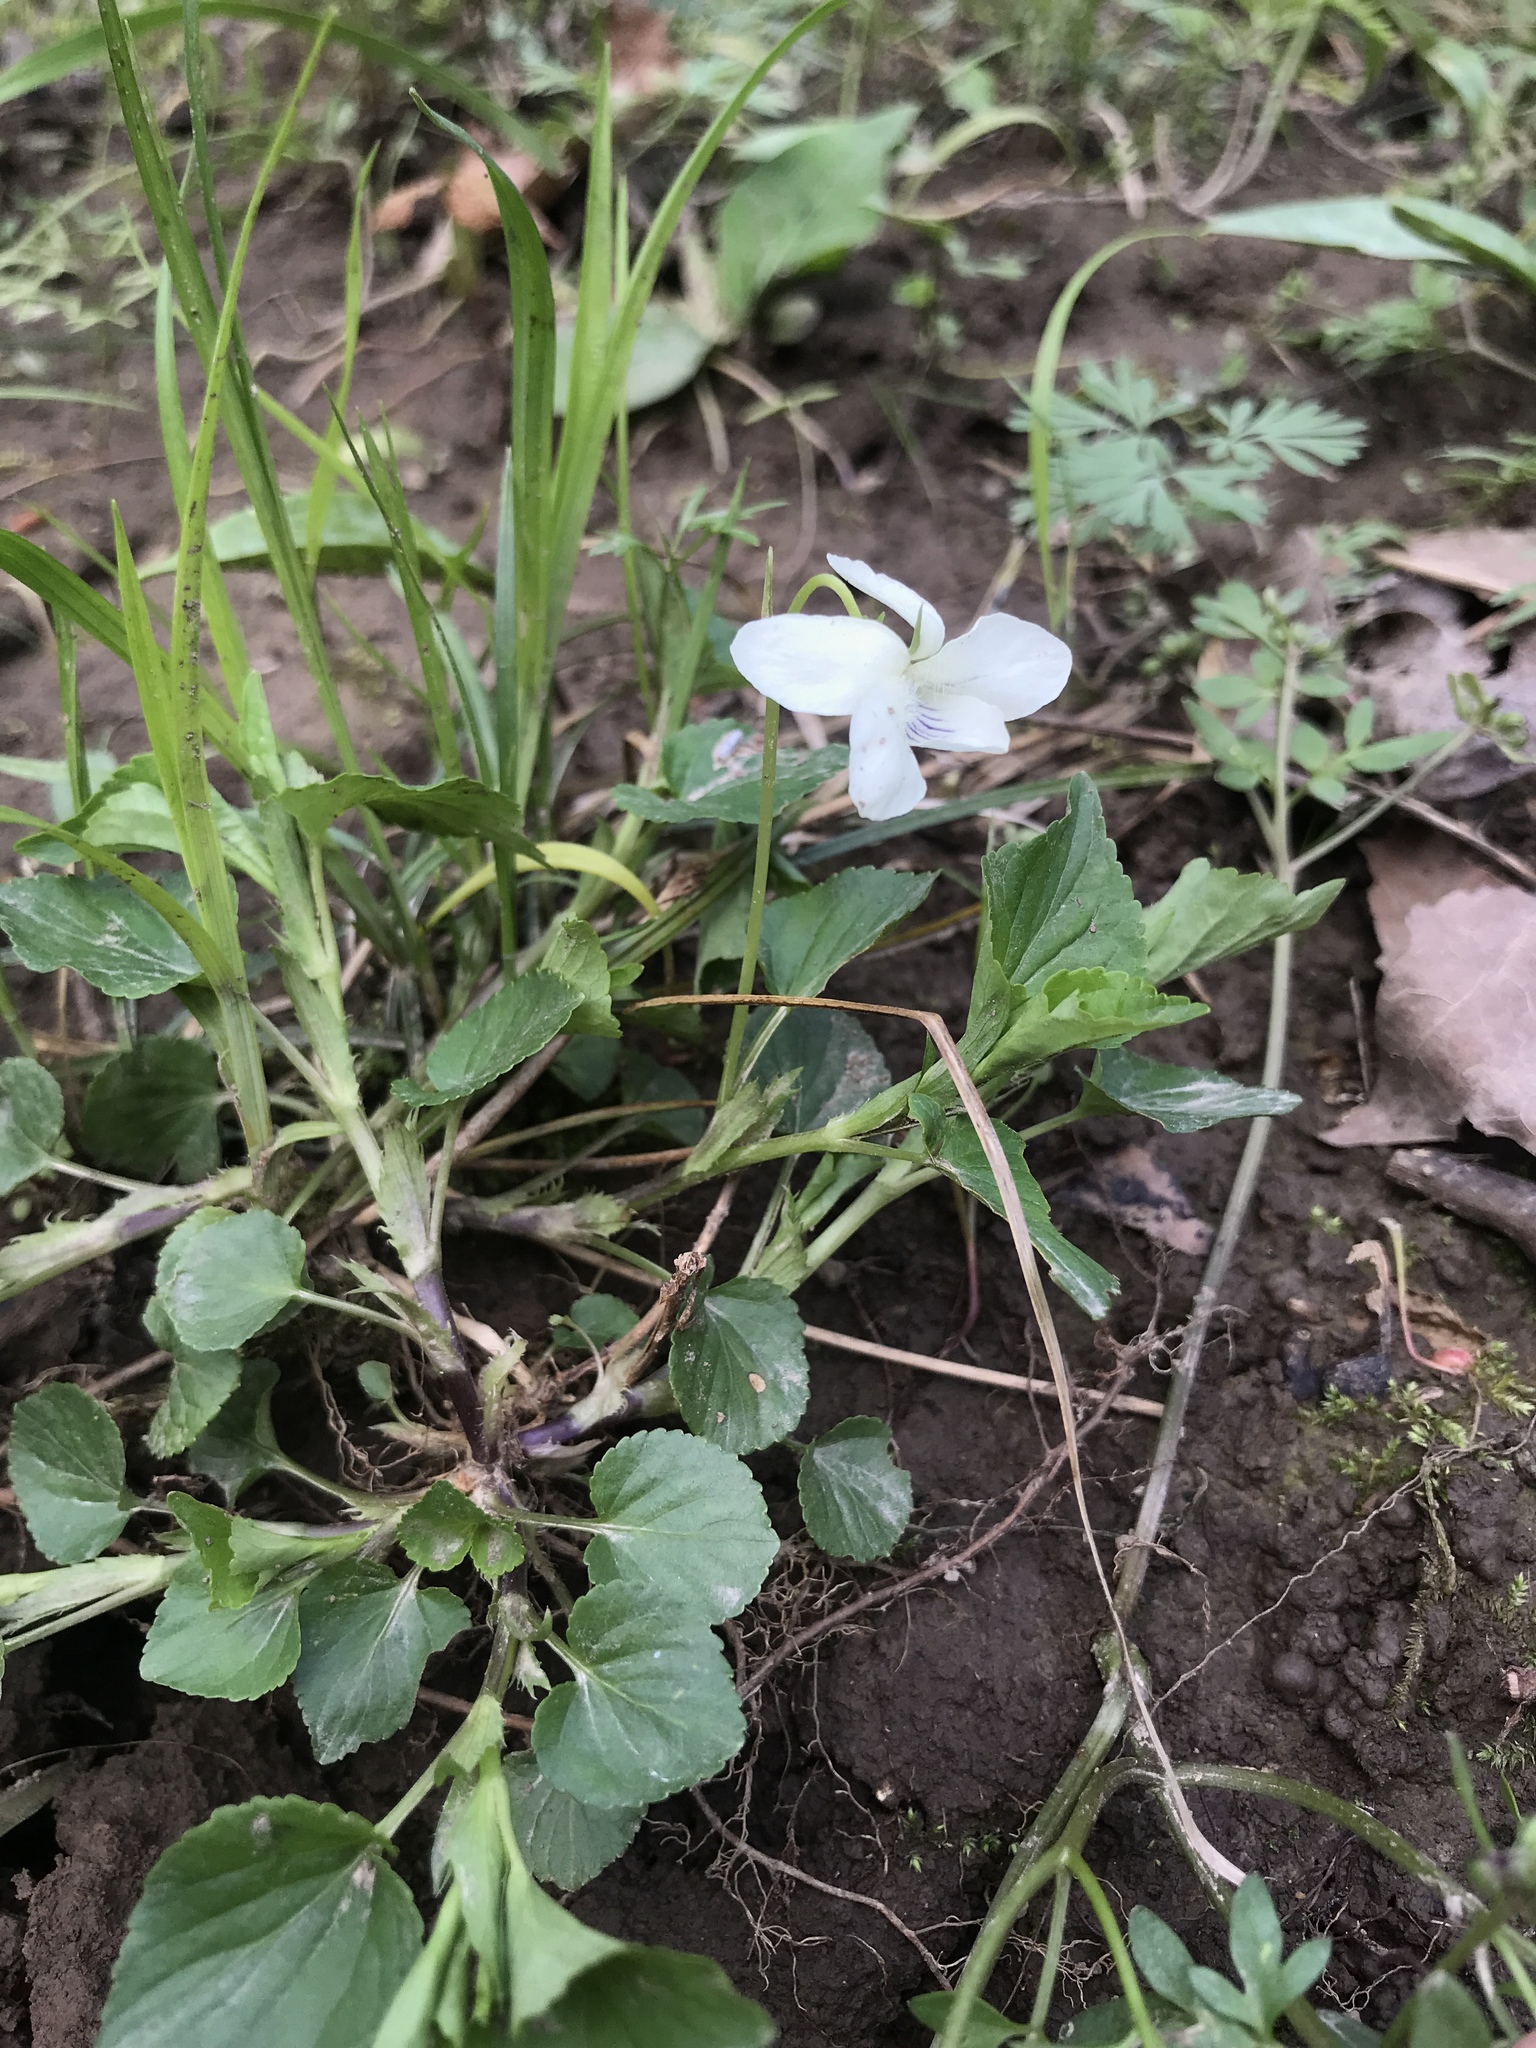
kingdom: Plantae
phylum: Tracheophyta
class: Magnoliopsida
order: Malpighiales
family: Violaceae
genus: Viola
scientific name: Viola striata
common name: Cream violet
